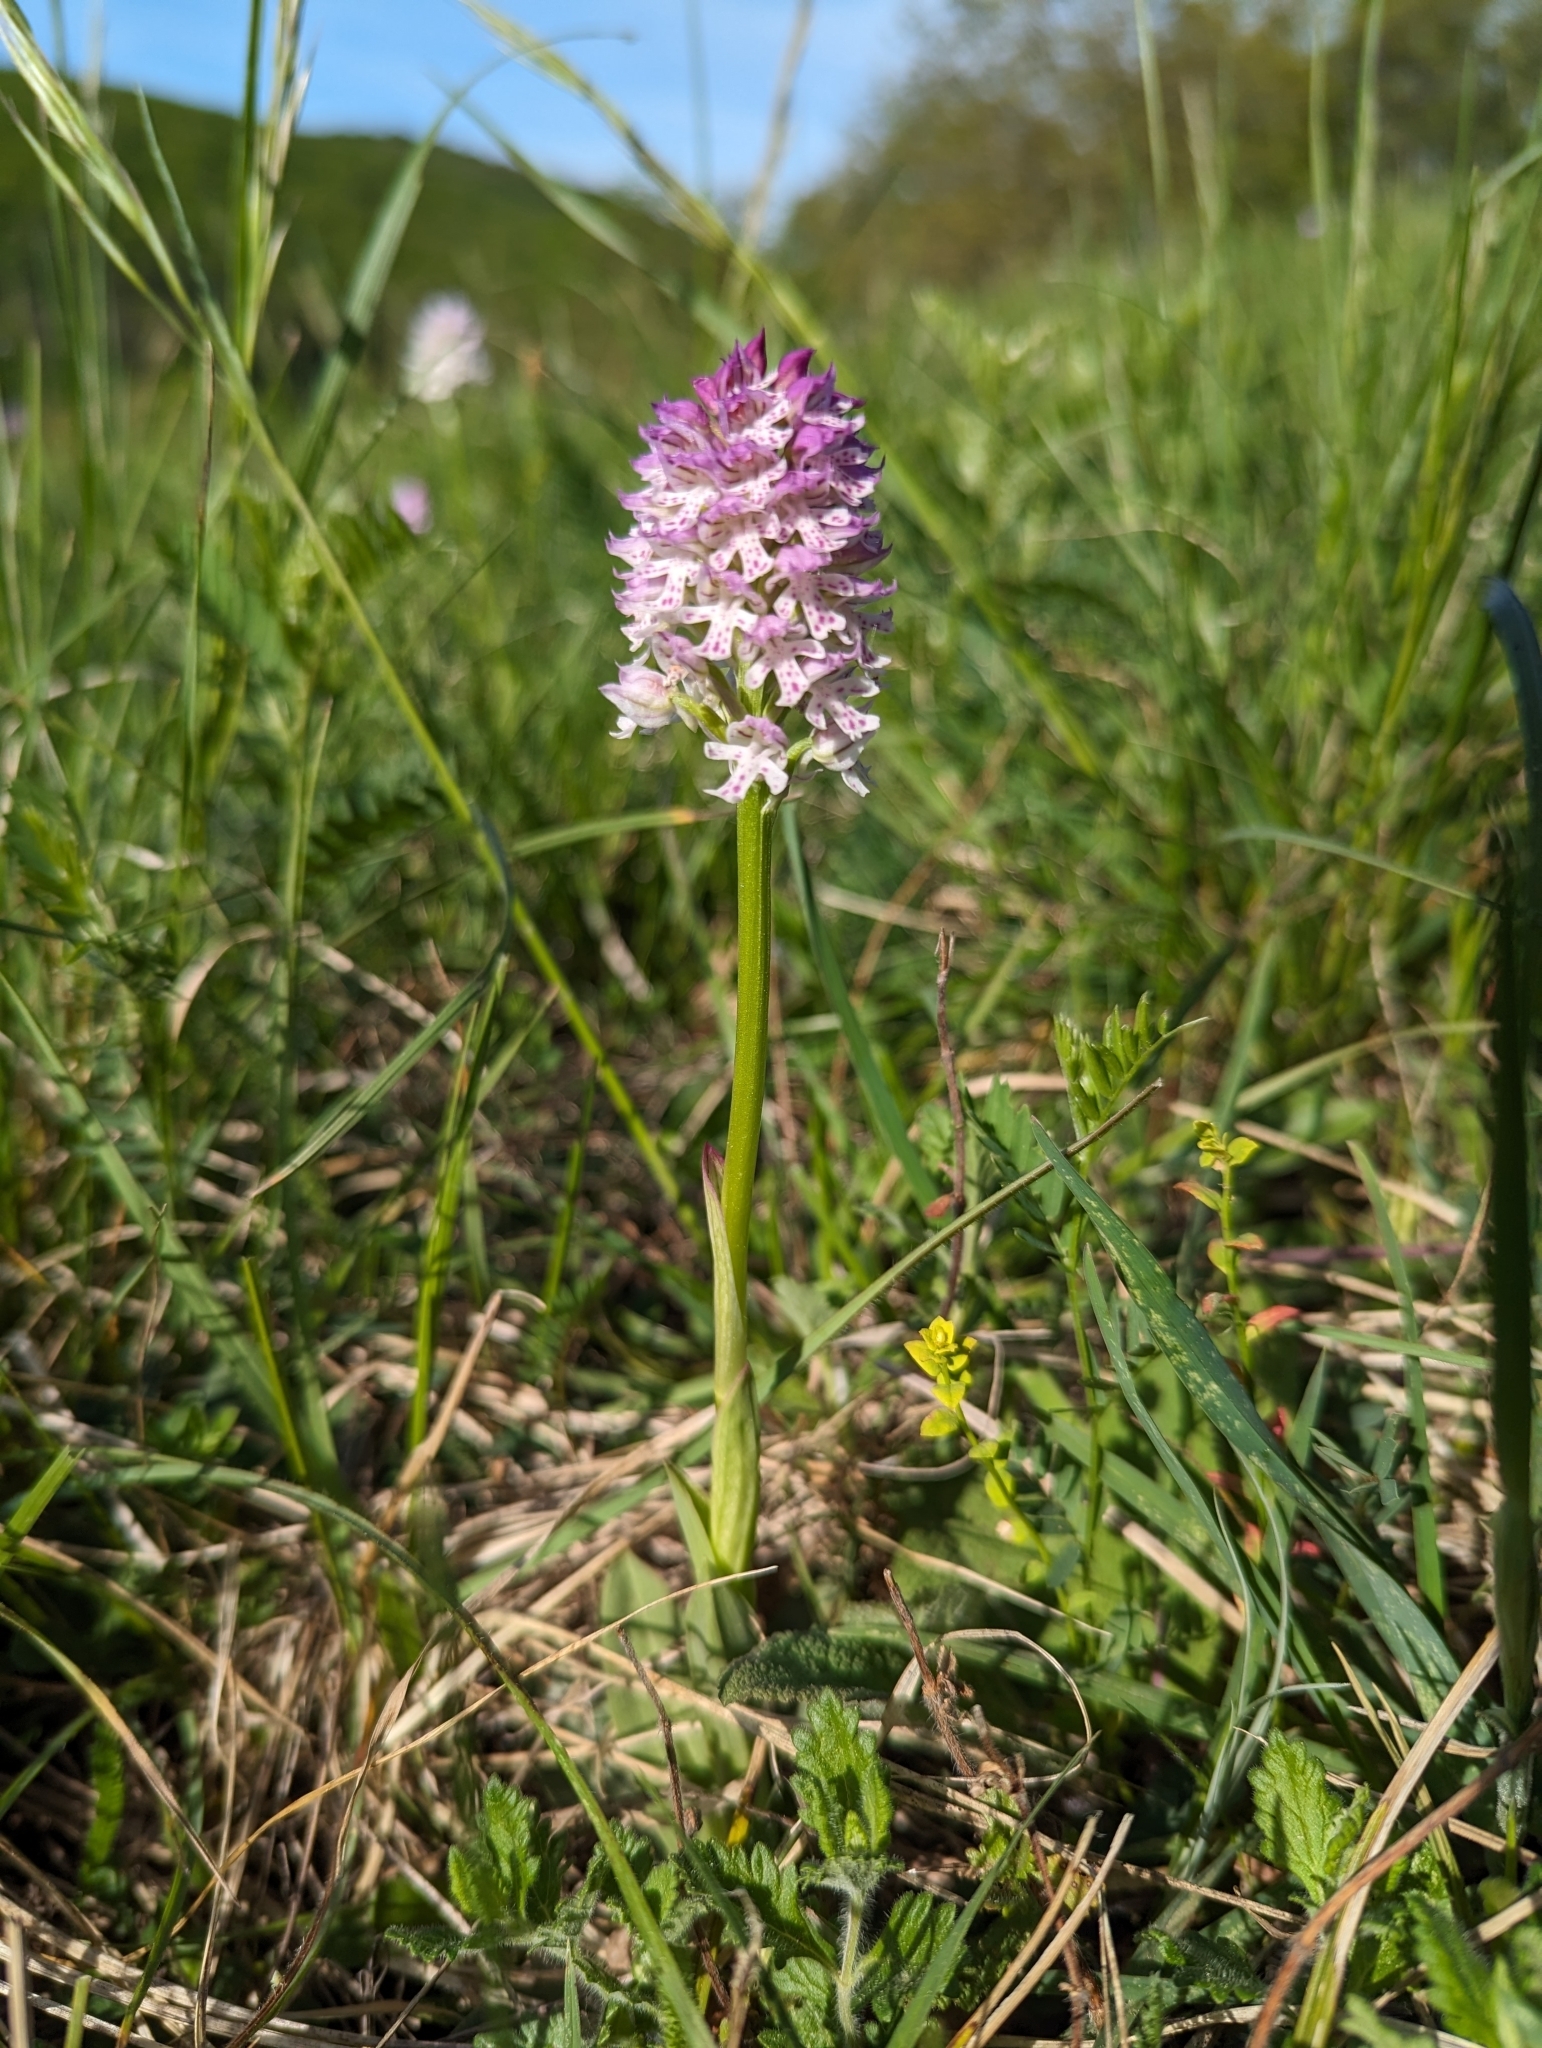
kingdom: Plantae
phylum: Tracheophyta
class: Liliopsida
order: Asparagales
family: Orchidaceae
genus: Neotinea
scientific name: Neotinea dietrichiana
